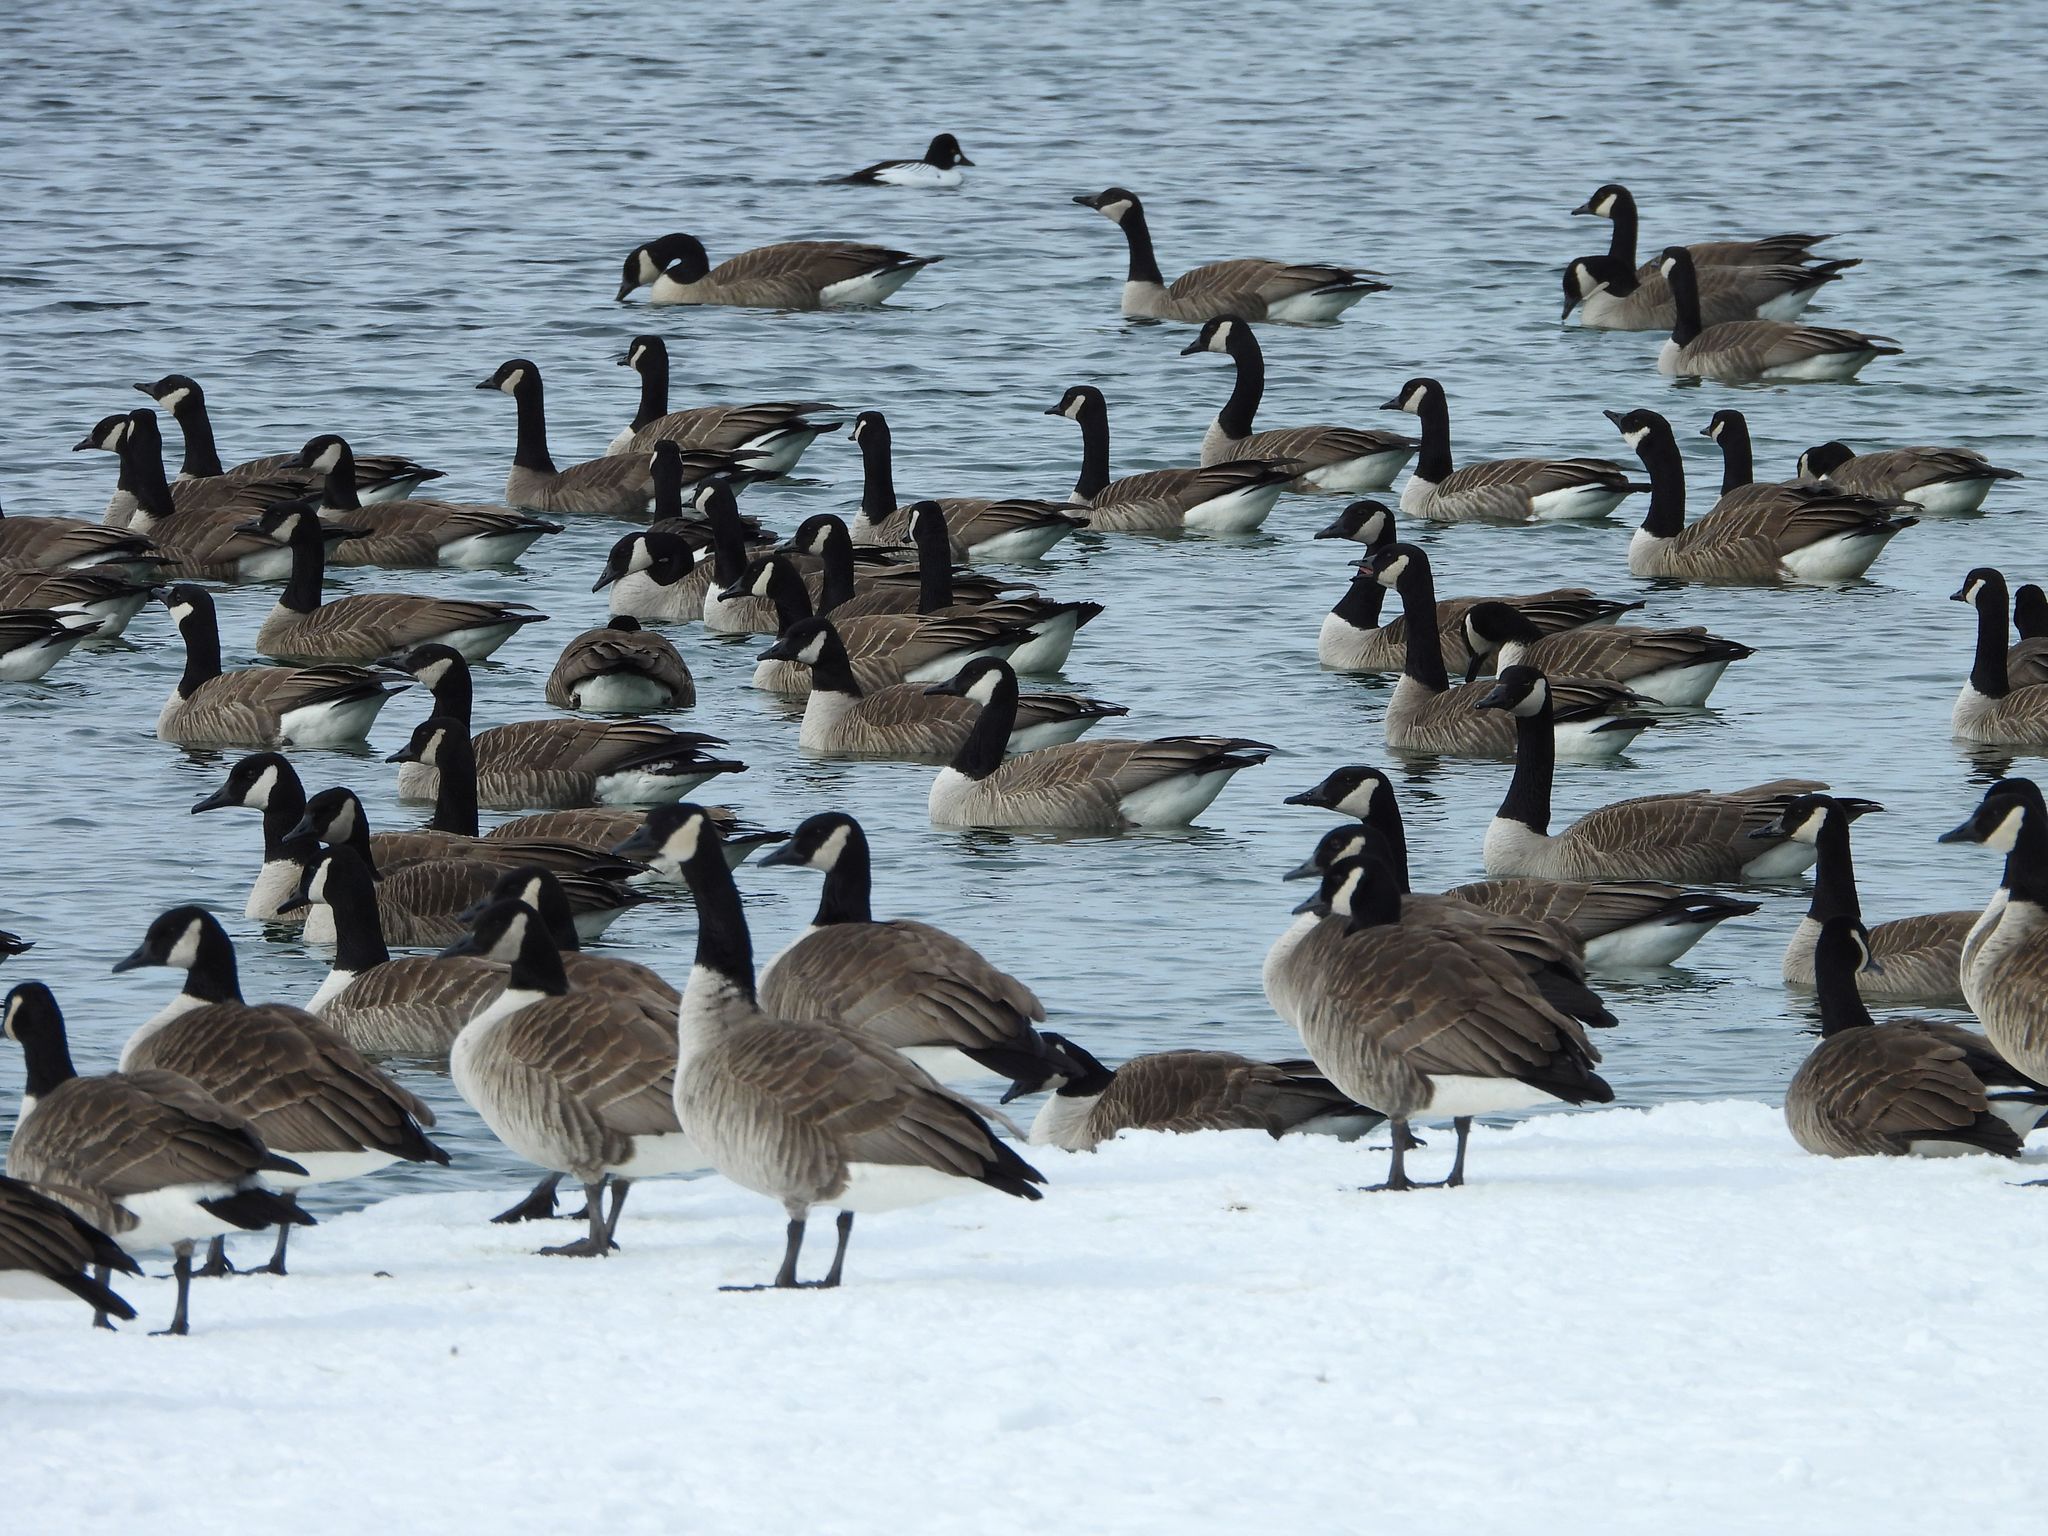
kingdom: Animalia
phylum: Chordata
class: Aves
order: Anseriformes
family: Anatidae
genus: Branta
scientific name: Branta canadensis
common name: Canada goose
